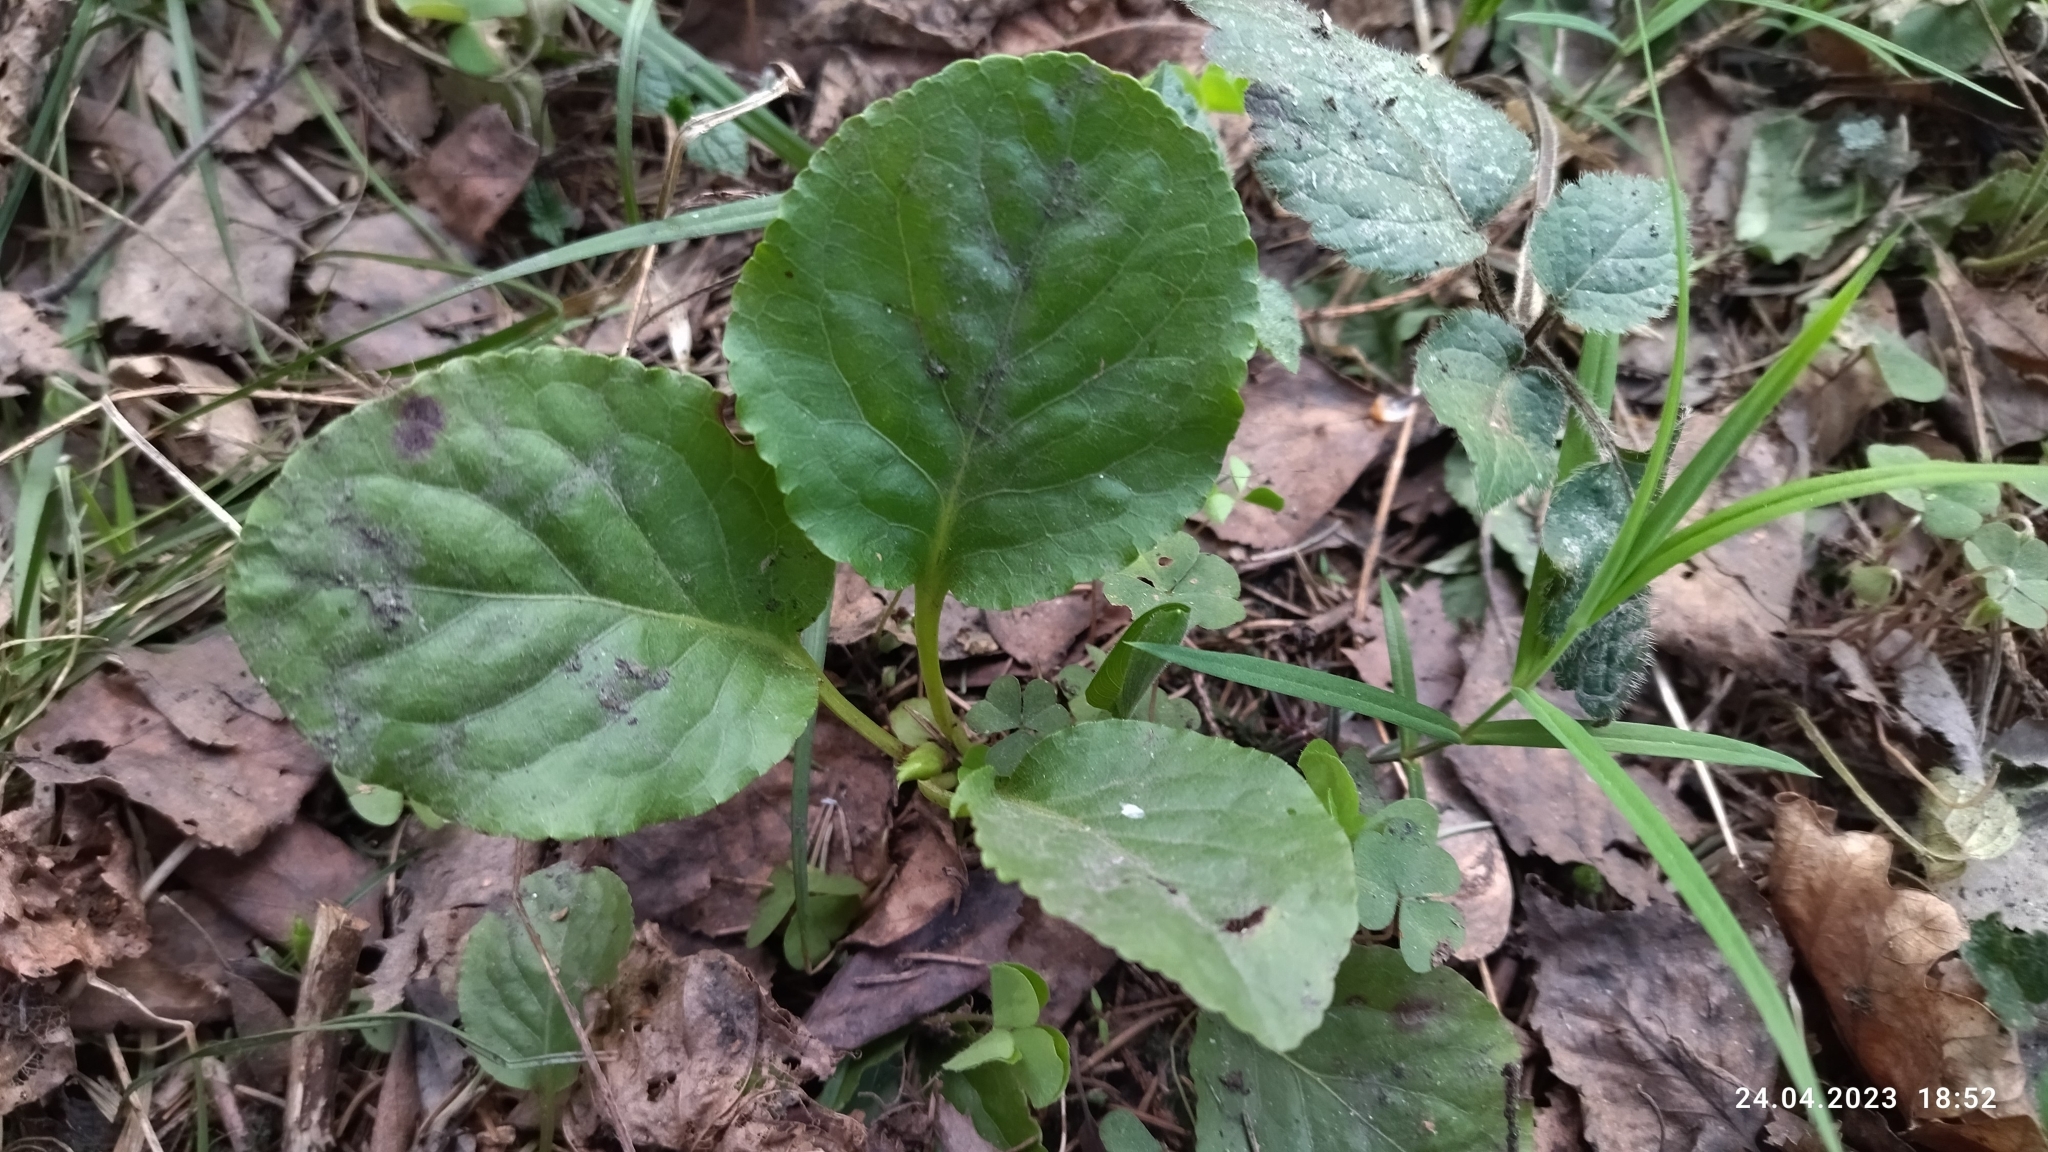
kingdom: Plantae
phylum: Tracheophyta
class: Magnoliopsida
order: Ericales
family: Ericaceae
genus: Pyrola
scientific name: Pyrola minor
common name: Common wintergreen
